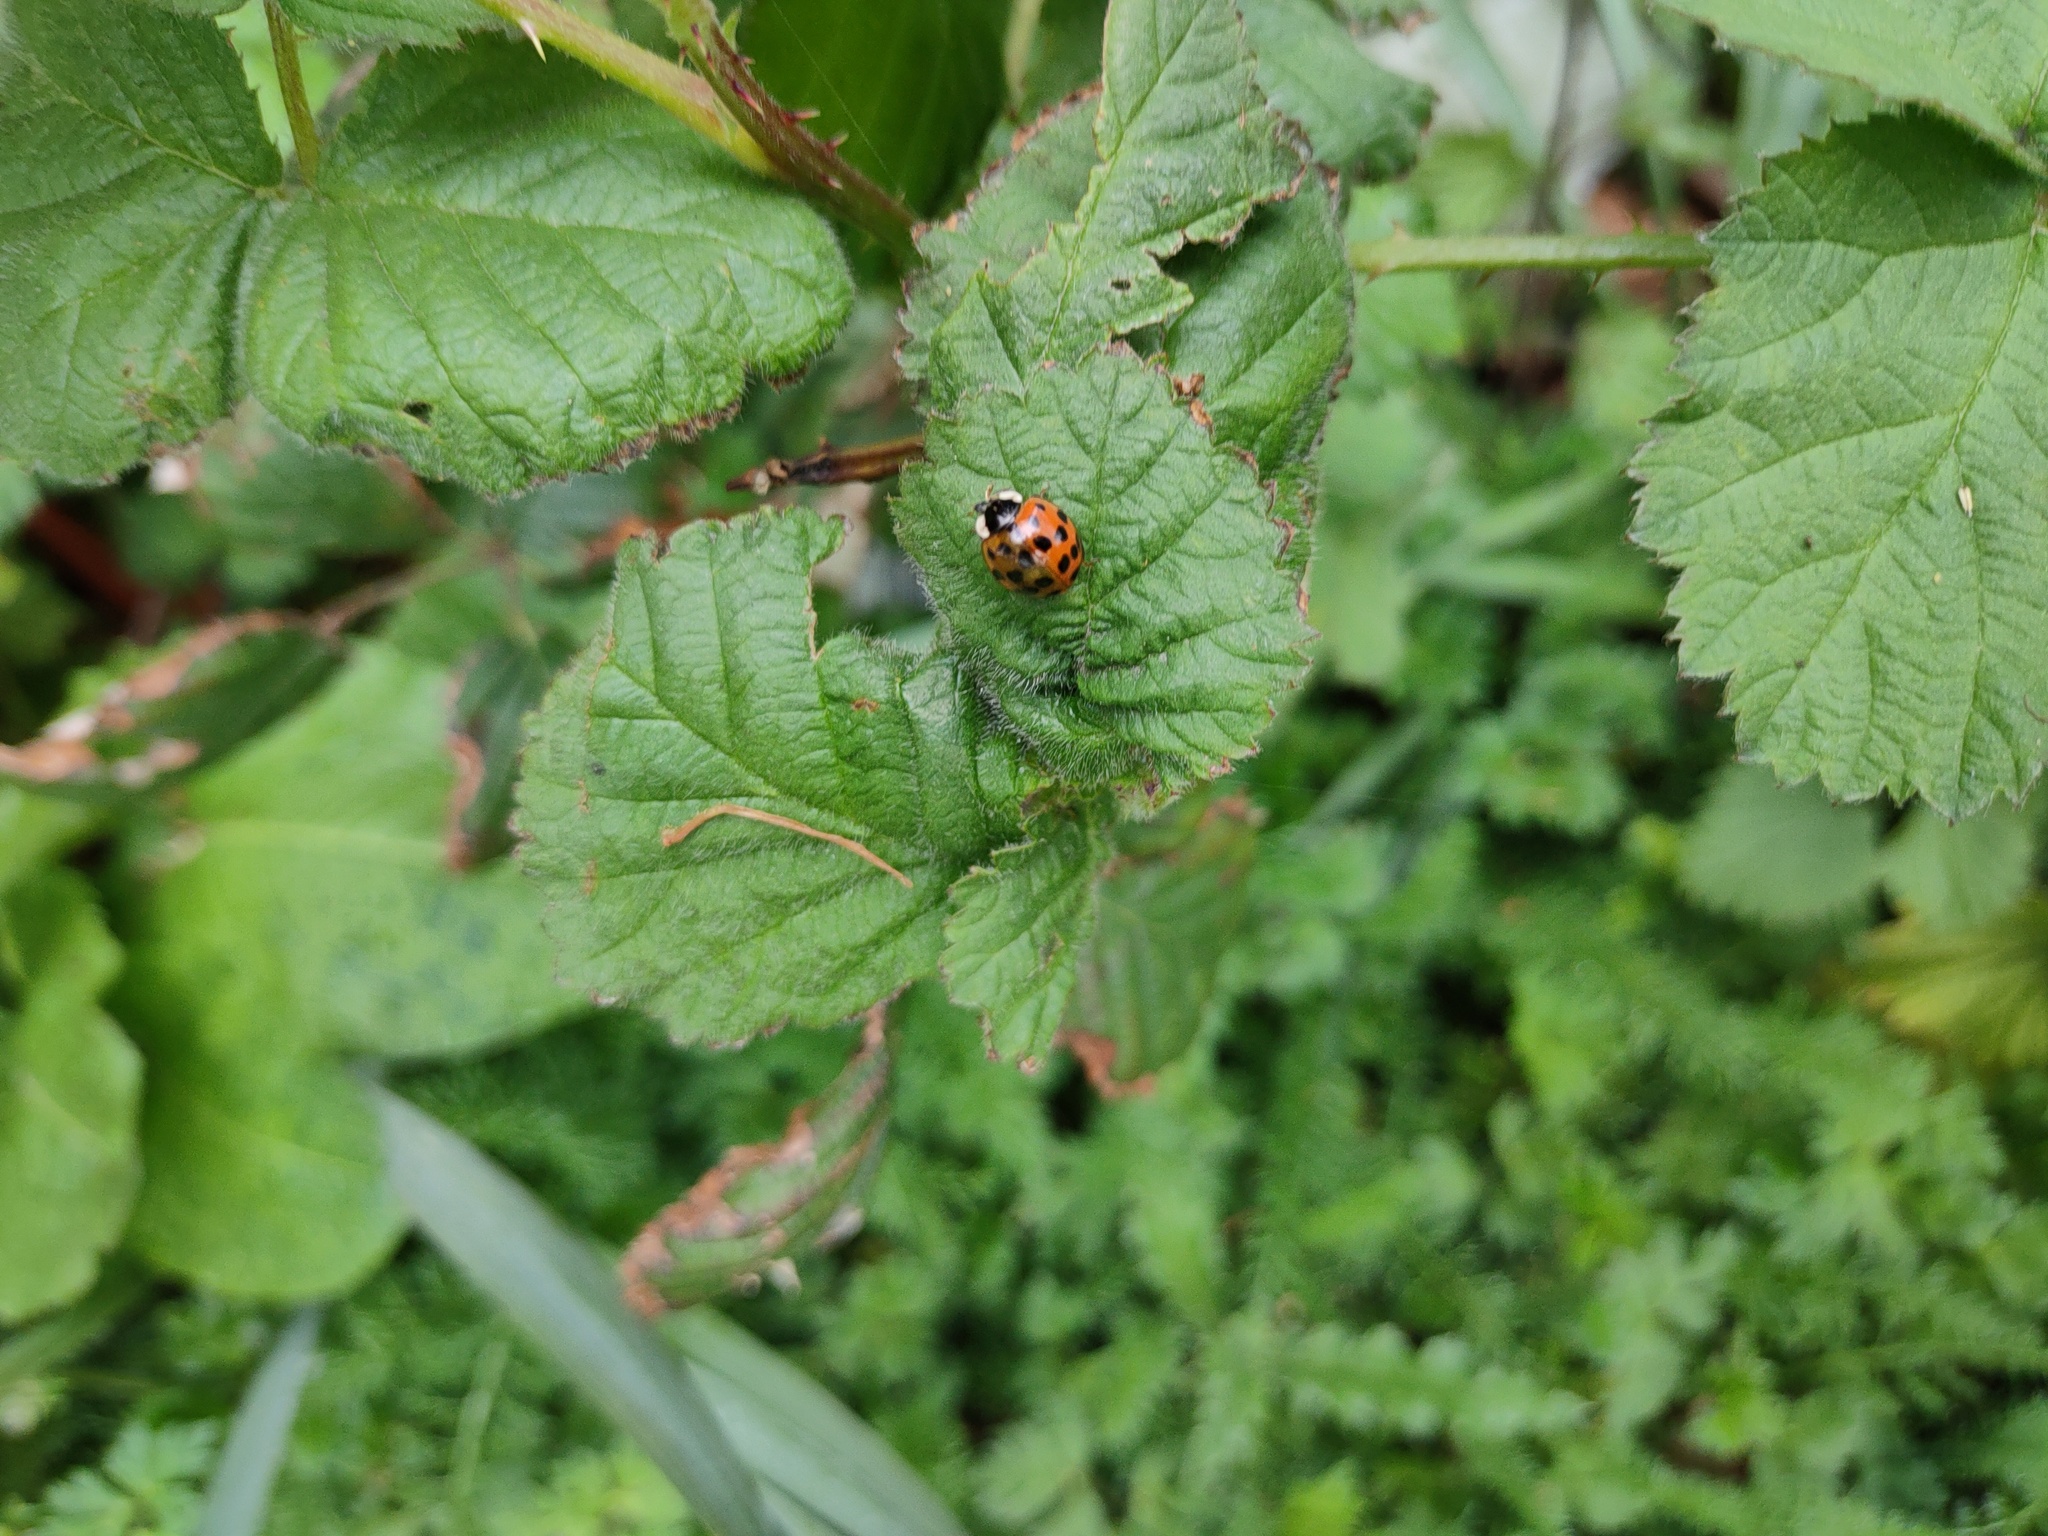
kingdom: Animalia
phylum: Arthropoda
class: Insecta
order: Coleoptera
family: Coccinellidae
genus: Harmonia
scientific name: Harmonia axyridis
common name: Harlequin ladybird
